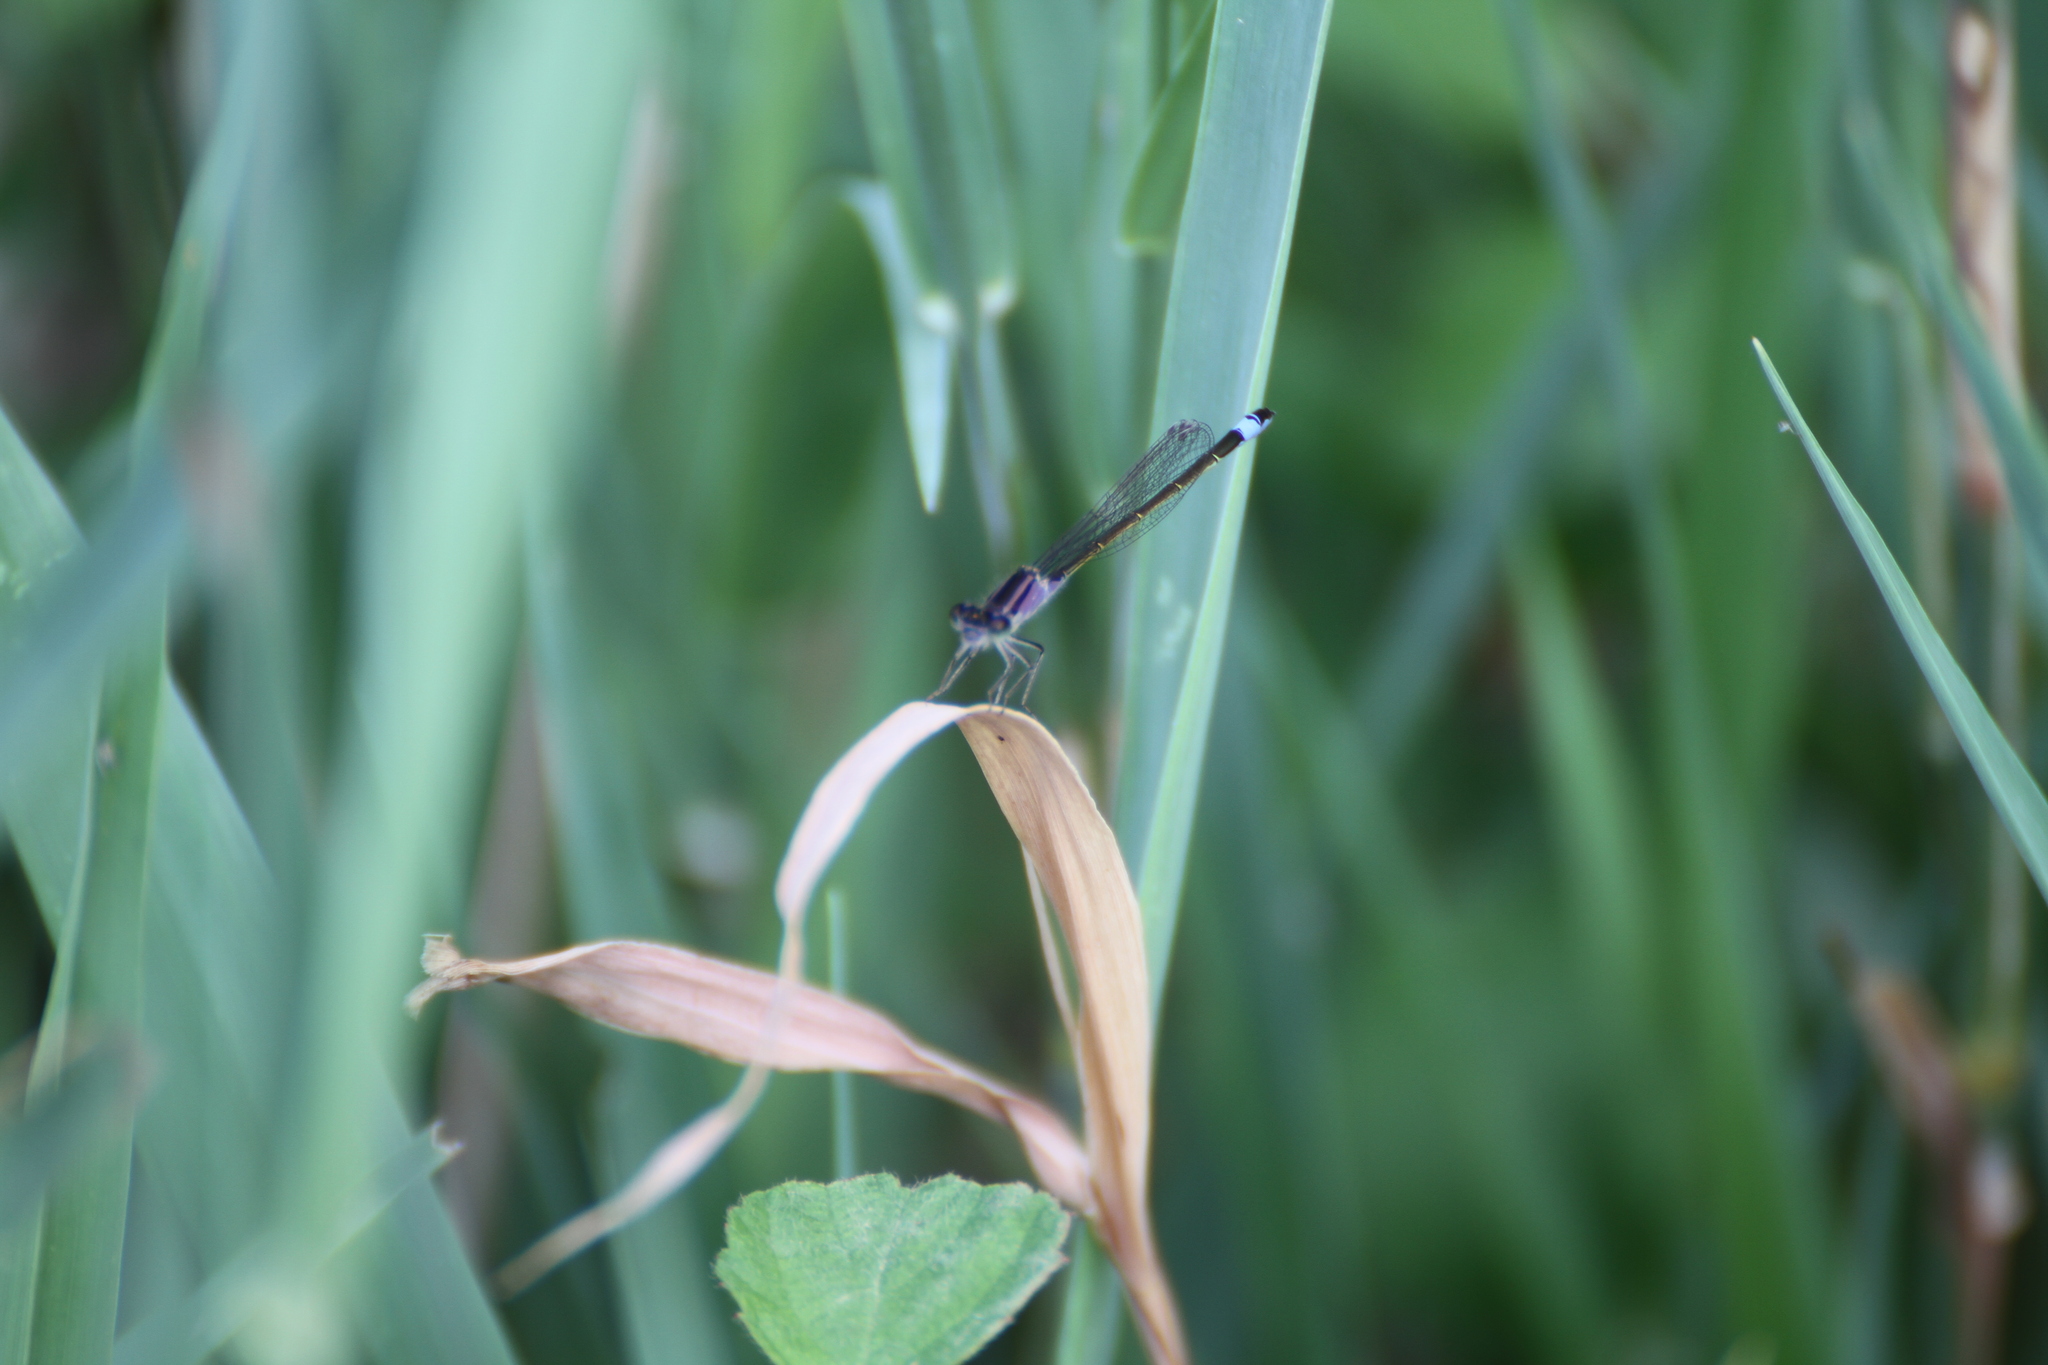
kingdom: Animalia
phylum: Arthropoda
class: Insecta
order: Odonata
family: Coenagrionidae
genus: Ischnura
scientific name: Ischnura elegans
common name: Blue-tailed damselfly
